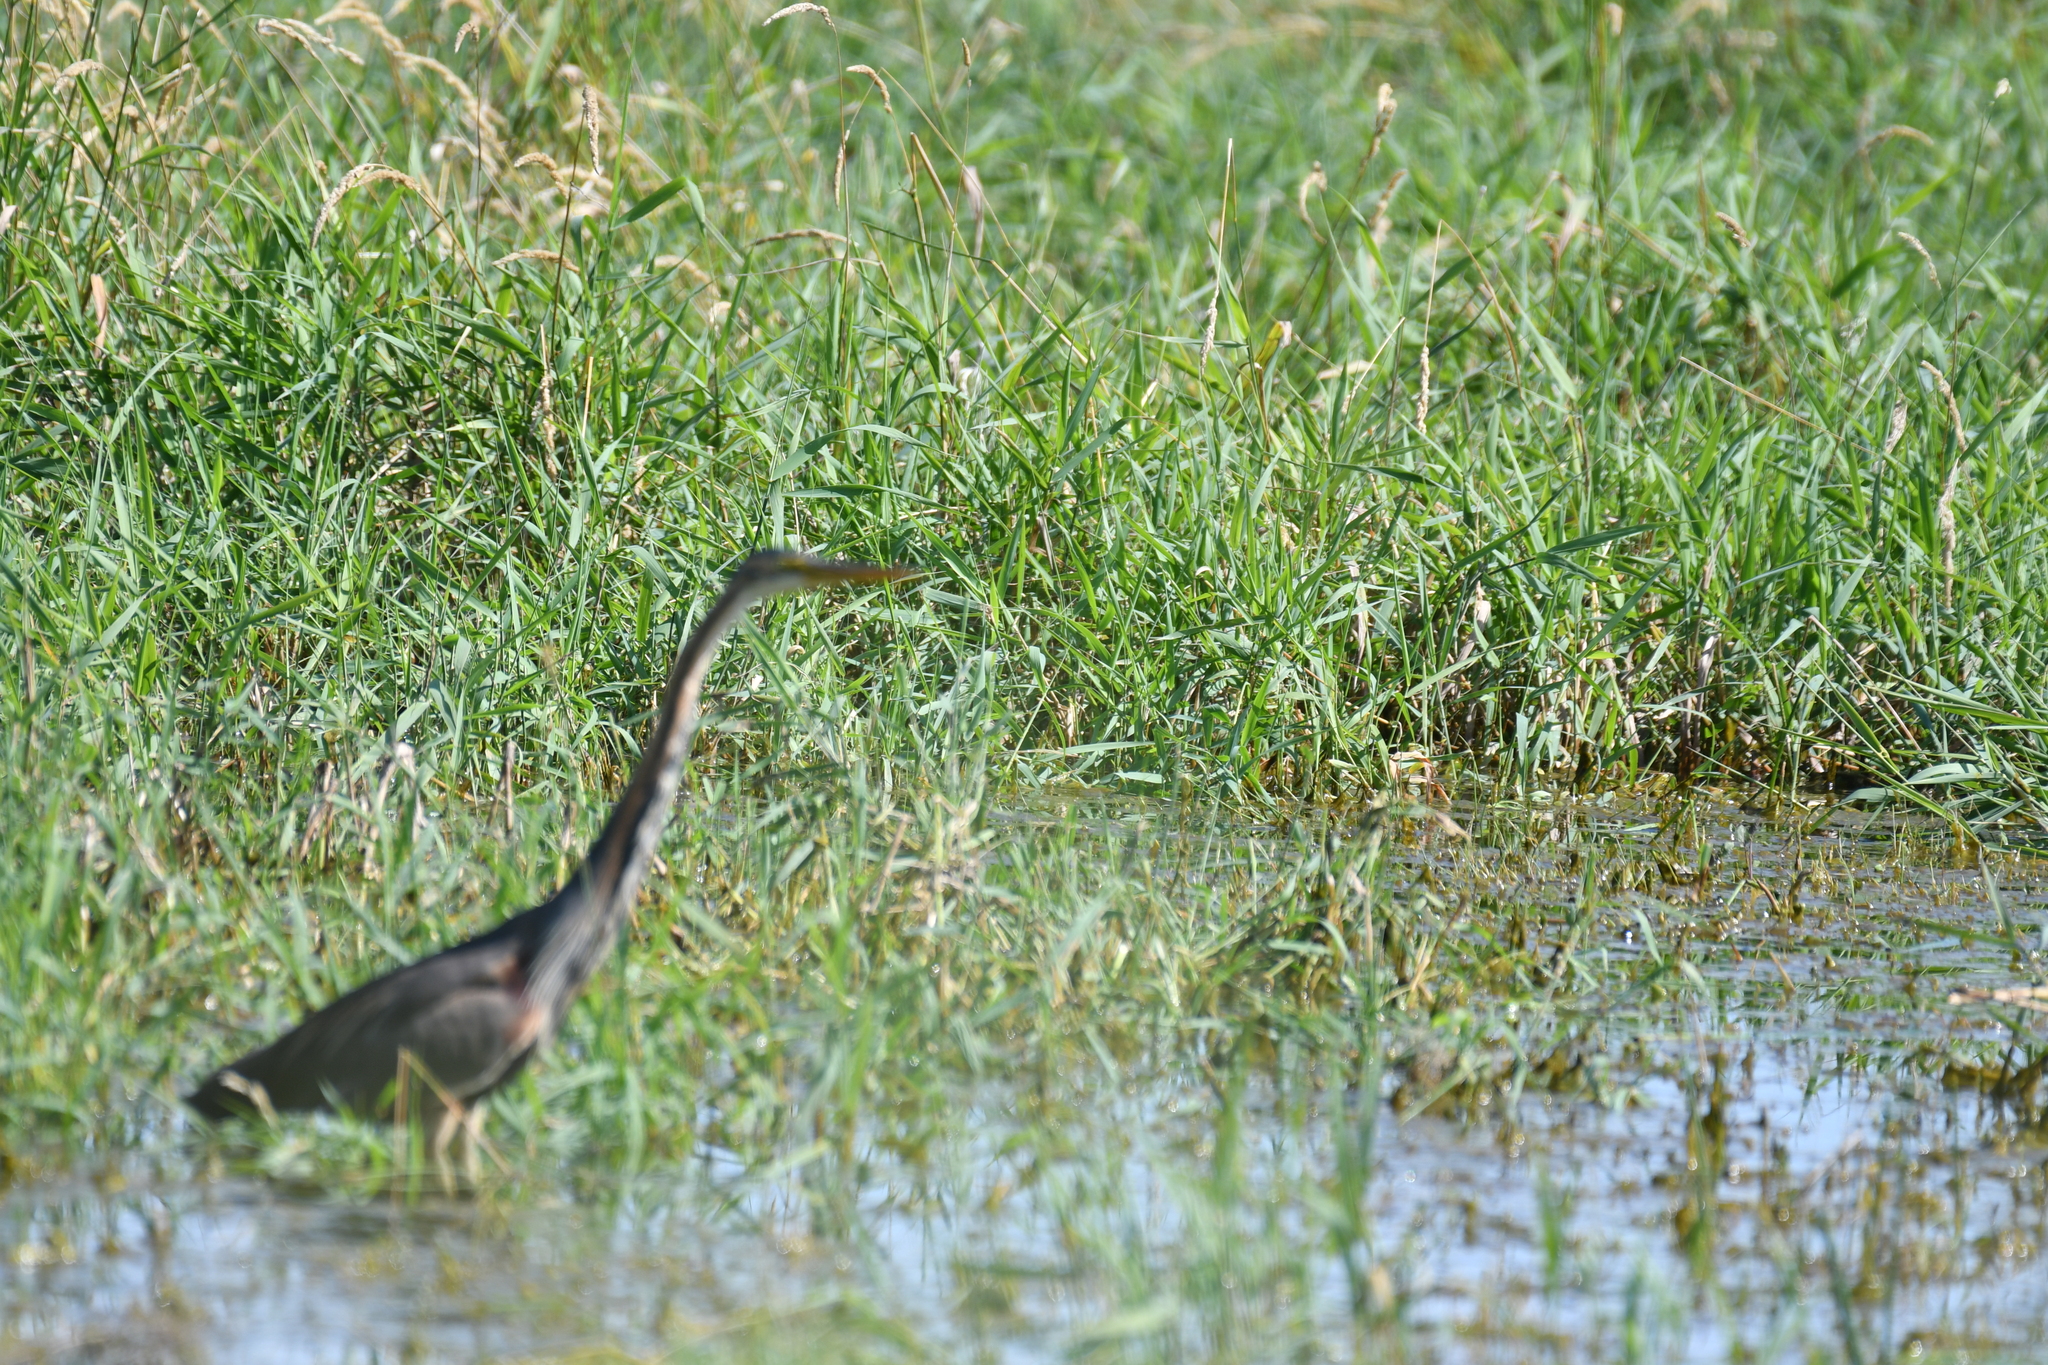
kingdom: Animalia
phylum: Chordata
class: Aves
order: Pelecaniformes
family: Ardeidae
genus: Ardea
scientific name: Ardea purpurea
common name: Purple heron
